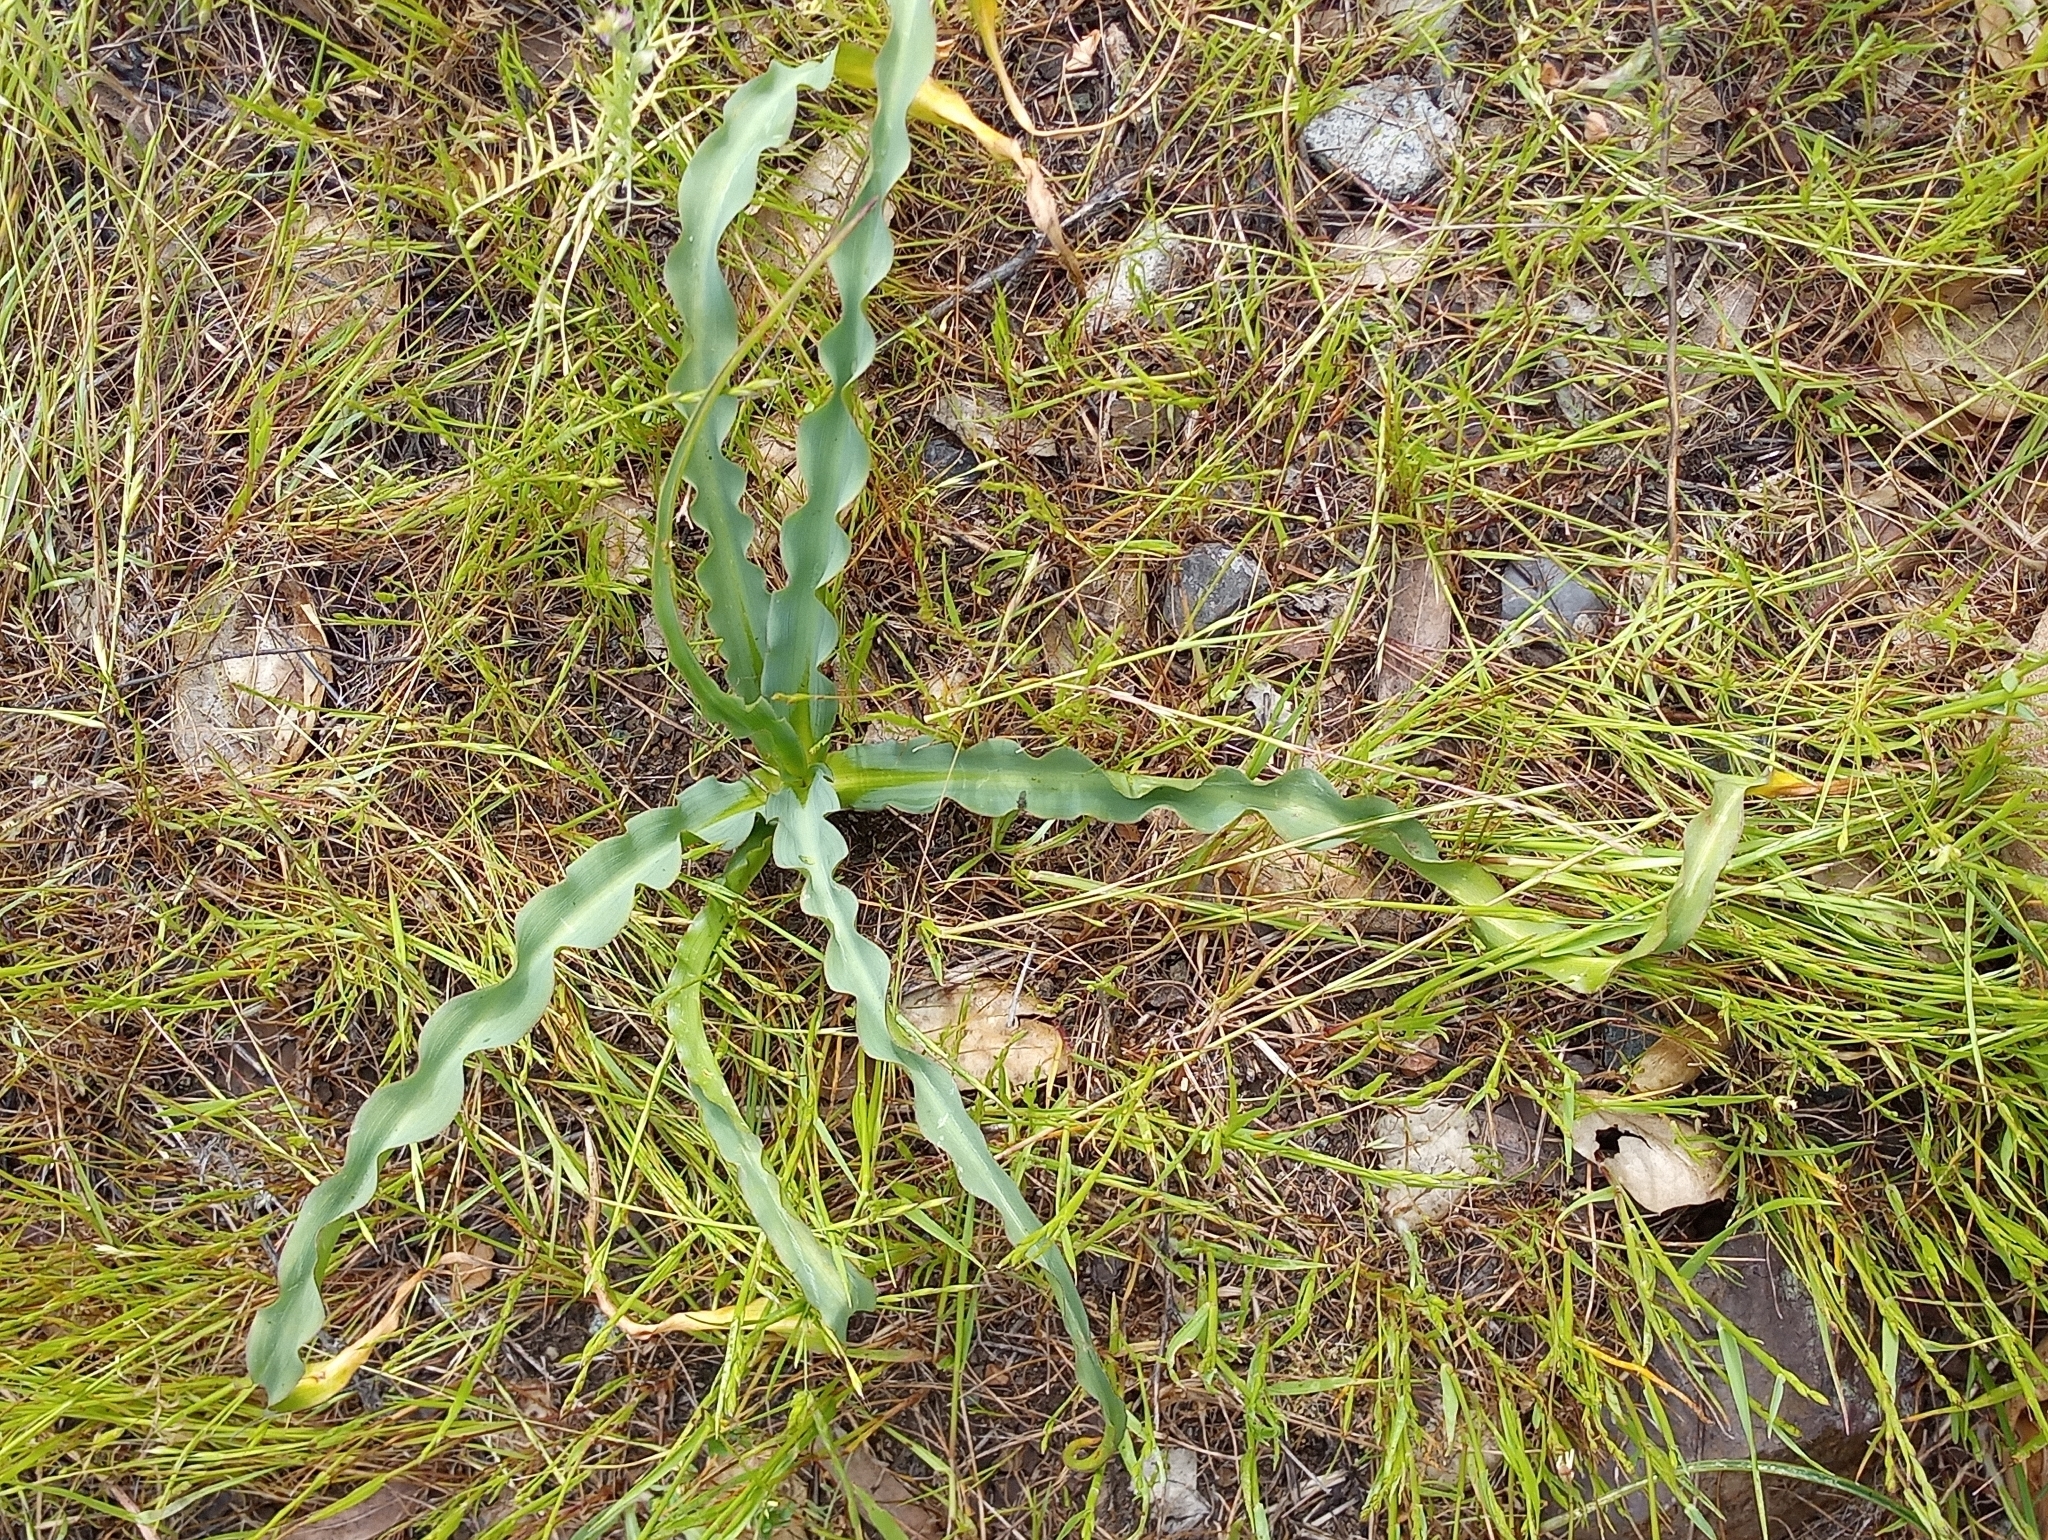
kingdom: Plantae
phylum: Tracheophyta
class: Liliopsida
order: Asparagales
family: Asparagaceae
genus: Chlorogalum
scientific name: Chlorogalum pomeridianum
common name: Amole
